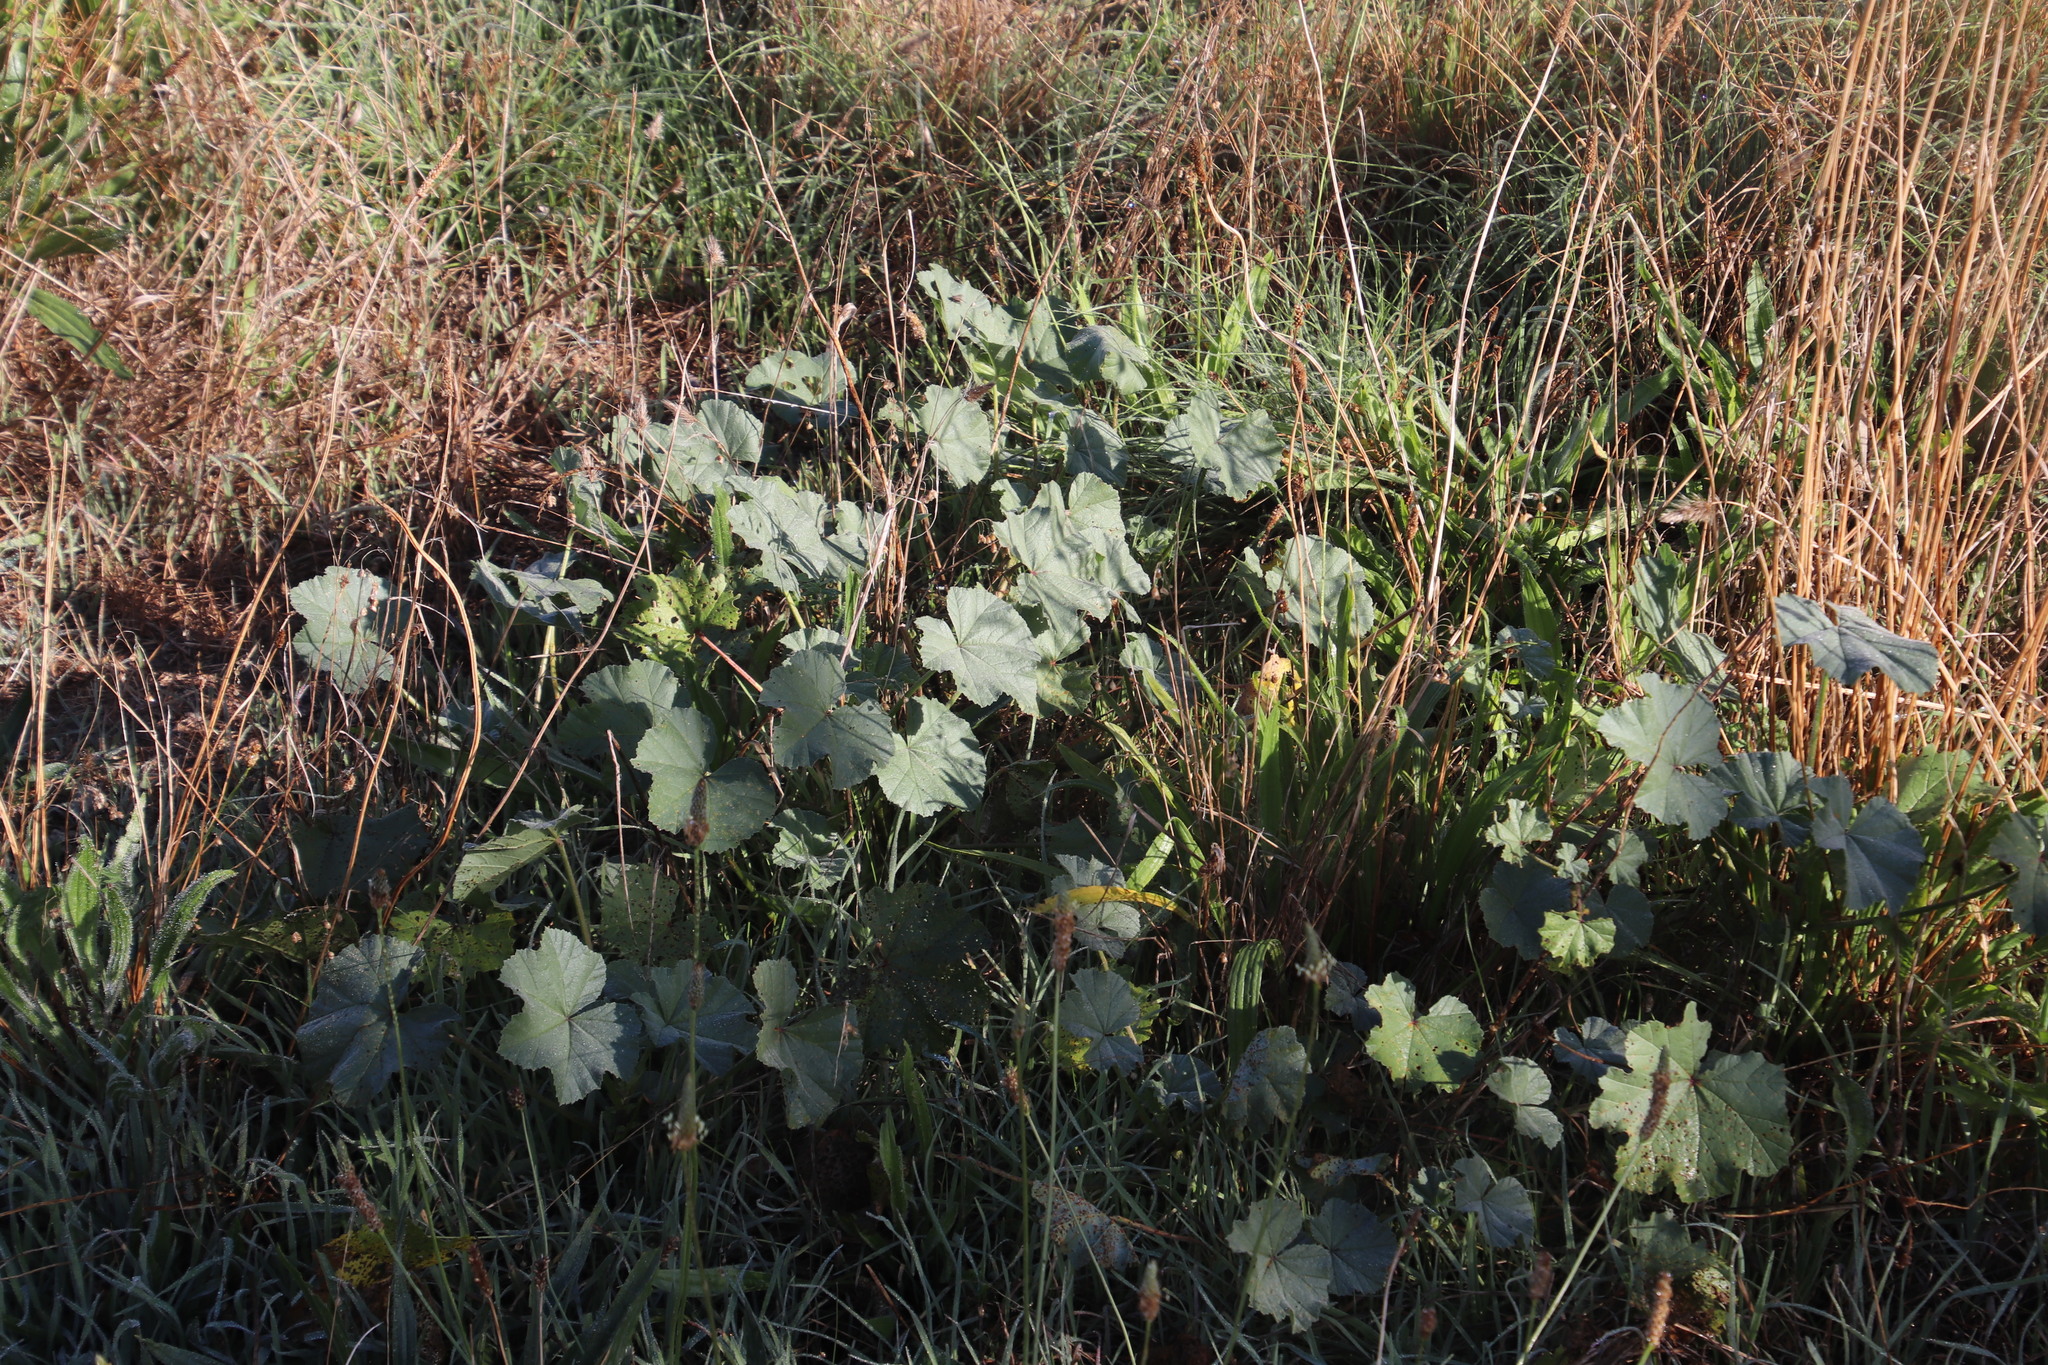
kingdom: Plantae
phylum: Tracheophyta
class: Magnoliopsida
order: Malvales
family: Malvaceae
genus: Malva
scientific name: Malva parviflora
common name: Least mallow
